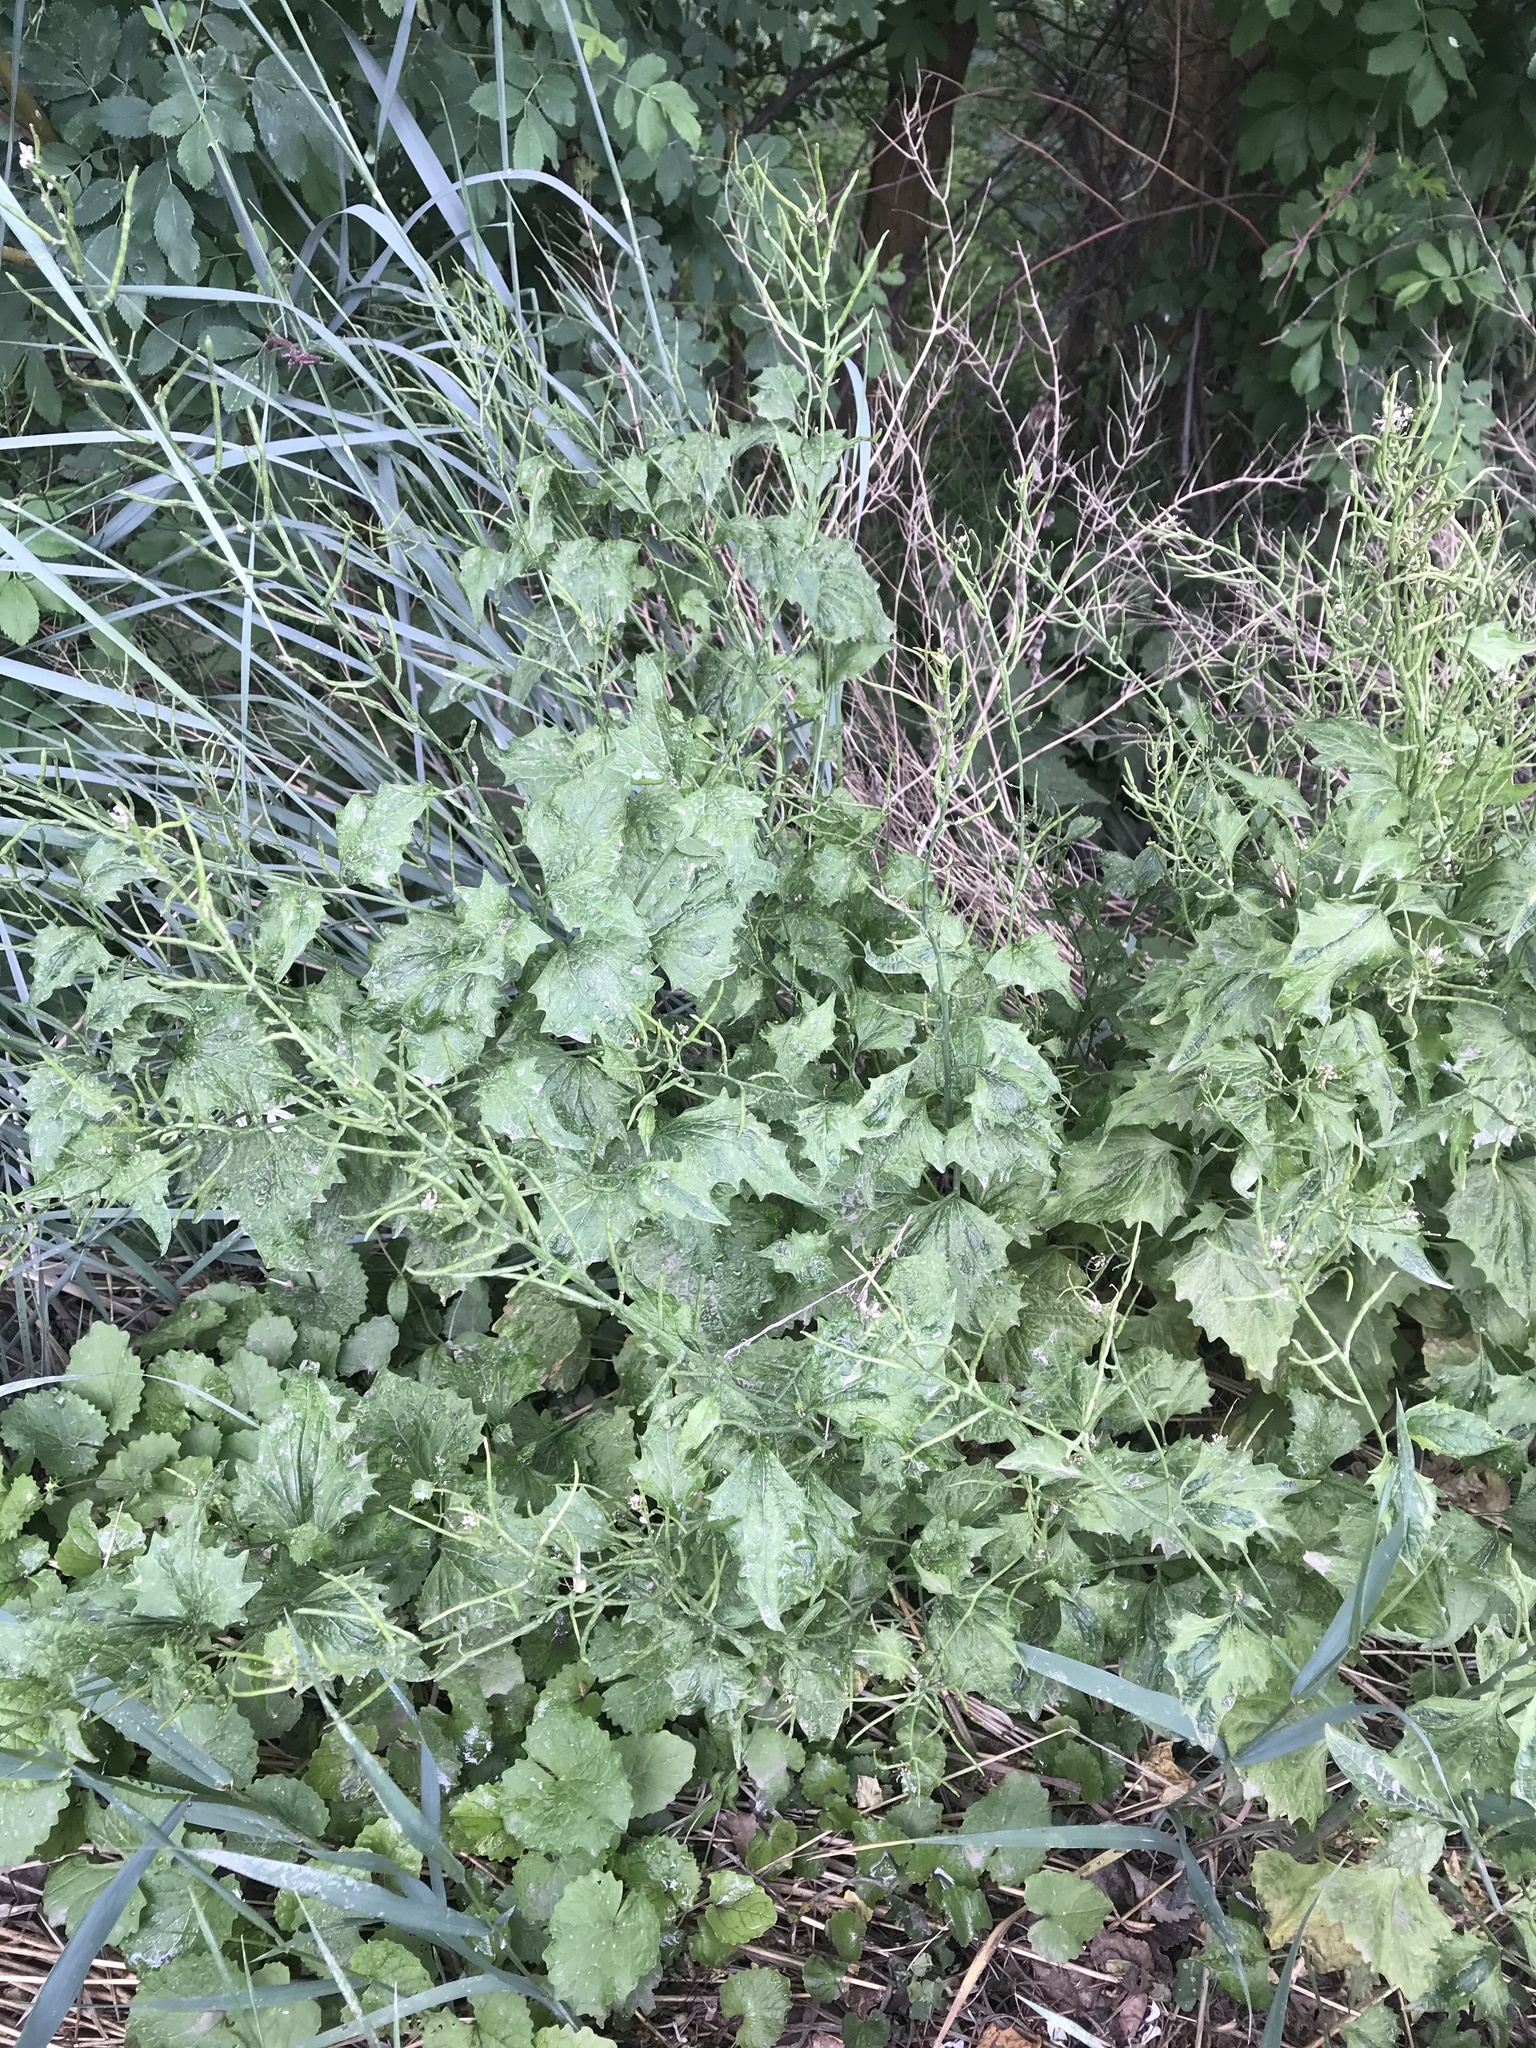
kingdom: Plantae
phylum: Tracheophyta
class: Magnoliopsida
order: Brassicales
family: Brassicaceae
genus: Alliaria
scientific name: Alliaria petiolata
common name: Garlic mustard
